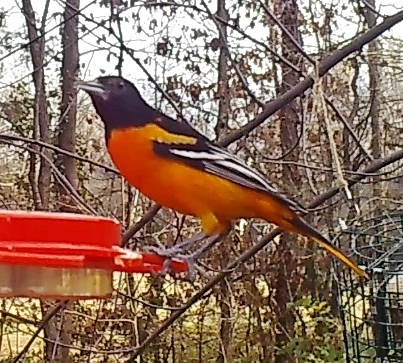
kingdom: Animalia
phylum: Chordata
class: Aves
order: Passeriformes
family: Icteridae
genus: Icterus
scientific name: Icterus galbula
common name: Baltimore oriole
